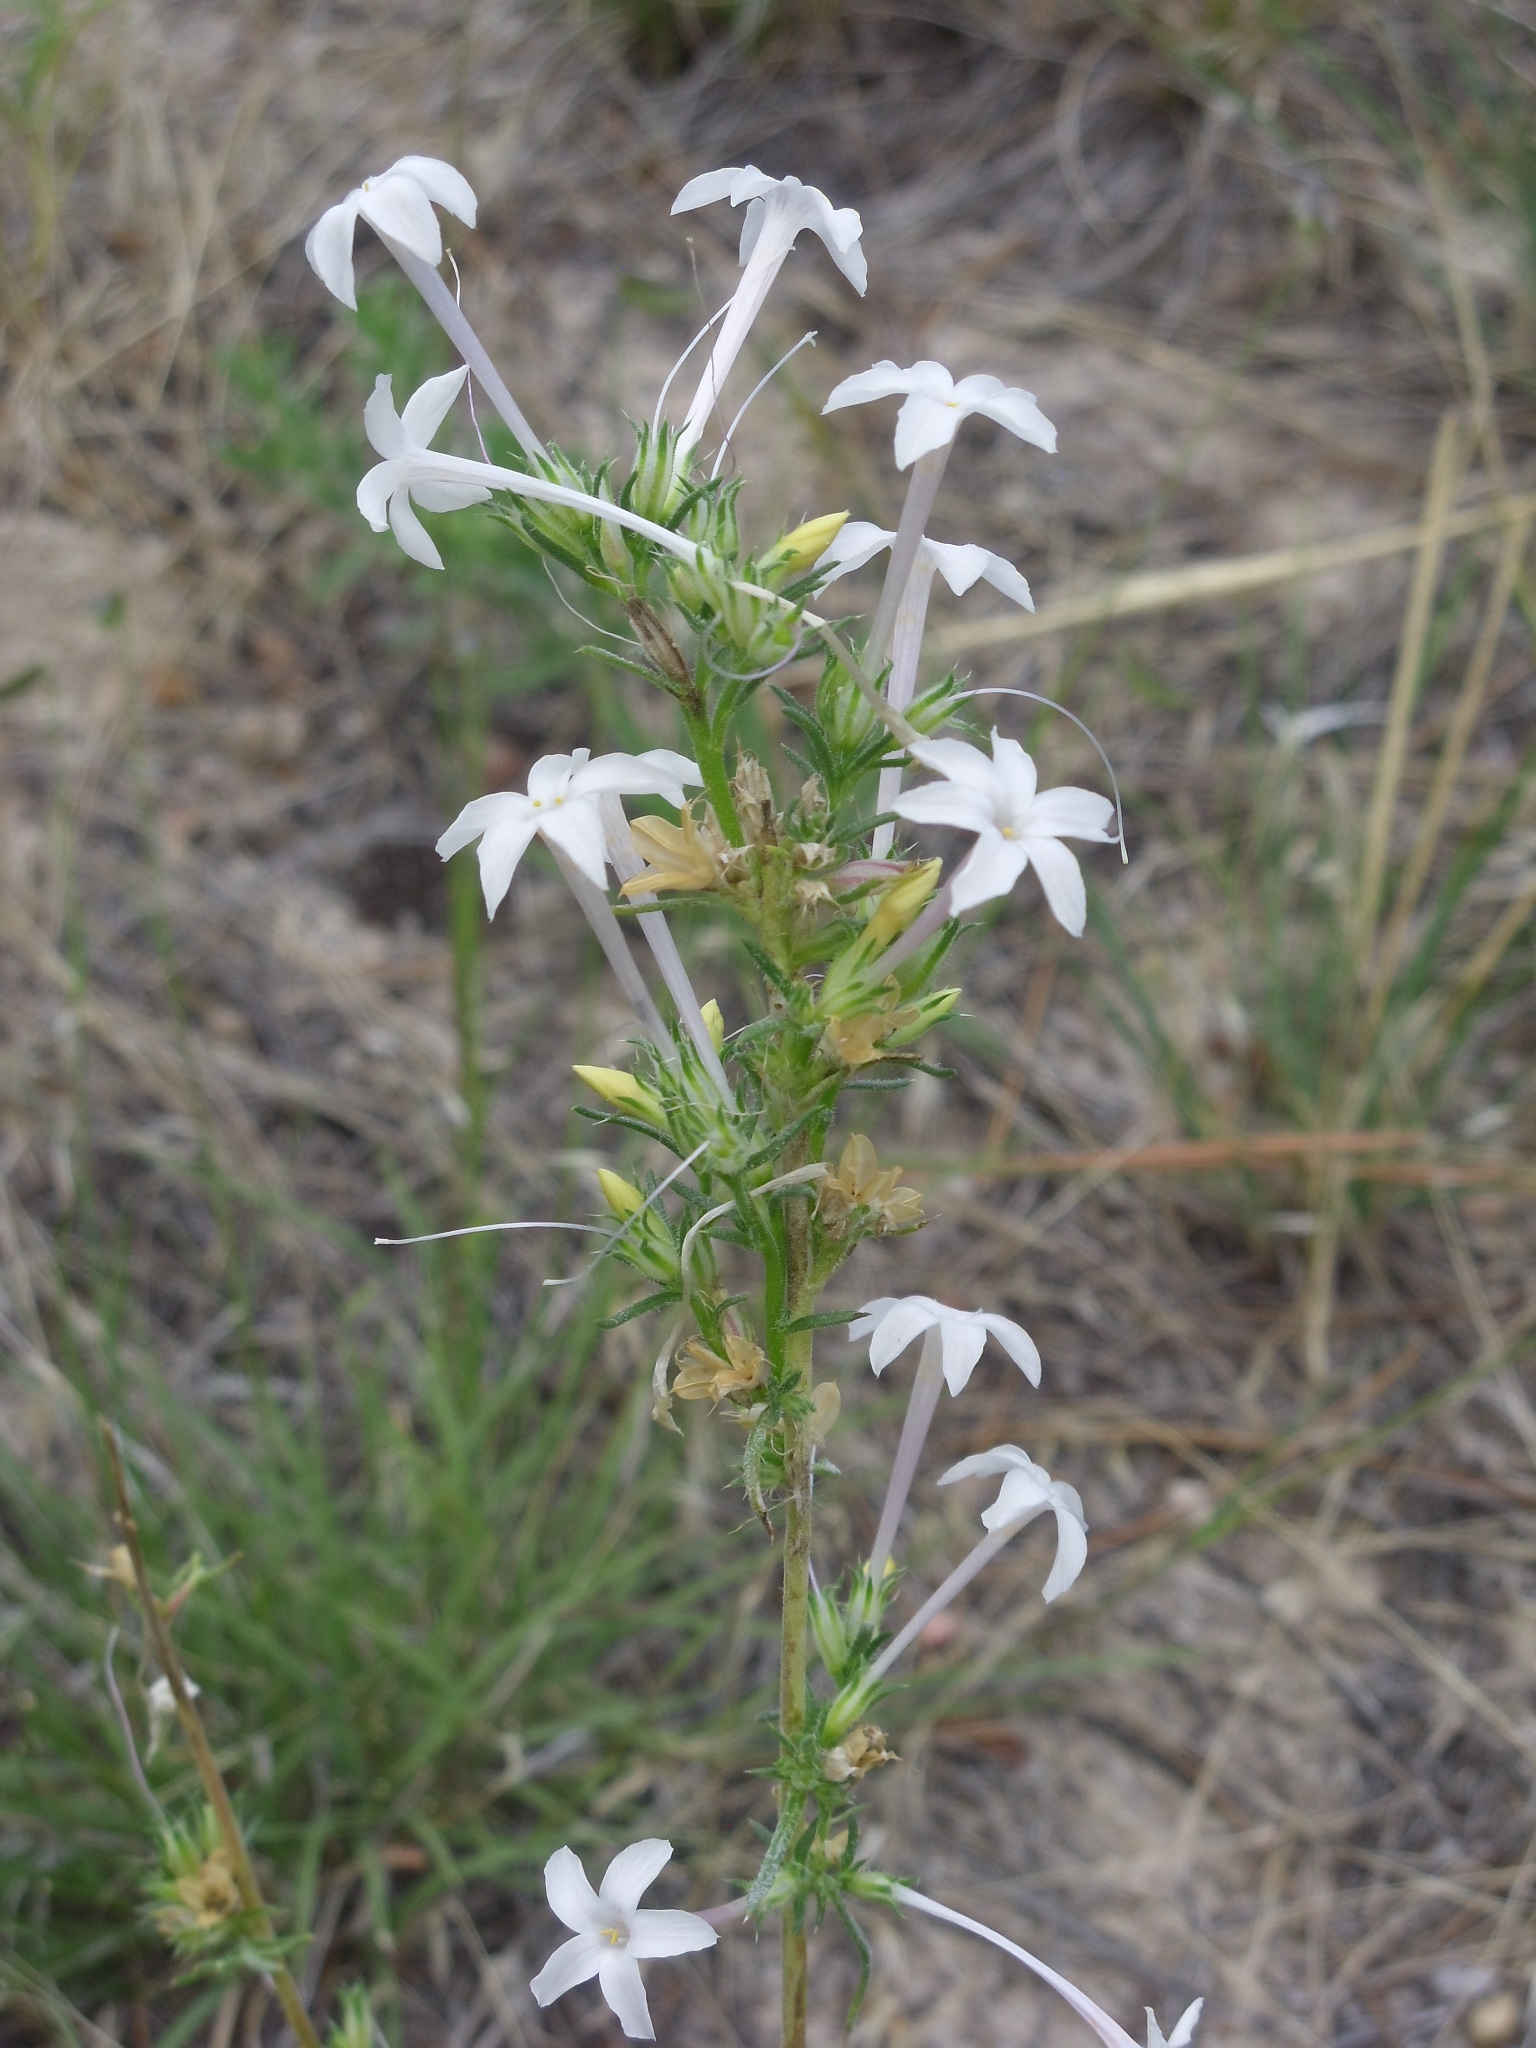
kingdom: Plantae
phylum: Tracheophyta
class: Magnoliopsida
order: Ericales
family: Polemoniaceae
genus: Ipomopsis
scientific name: Ipomopsis aggregata
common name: Scarlet gilia
